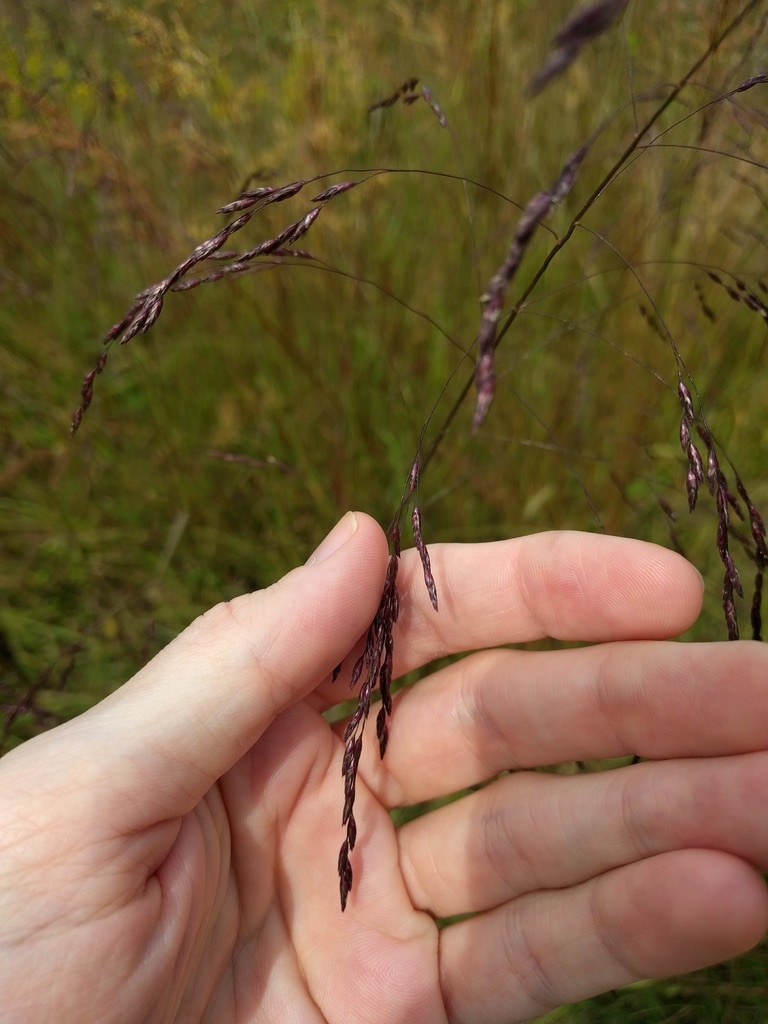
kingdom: Plantae
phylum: Tracheophyta
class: Liliopsida
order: Poales
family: Poaceae
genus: Tridens
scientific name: Tridens flavus
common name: Purpletop
